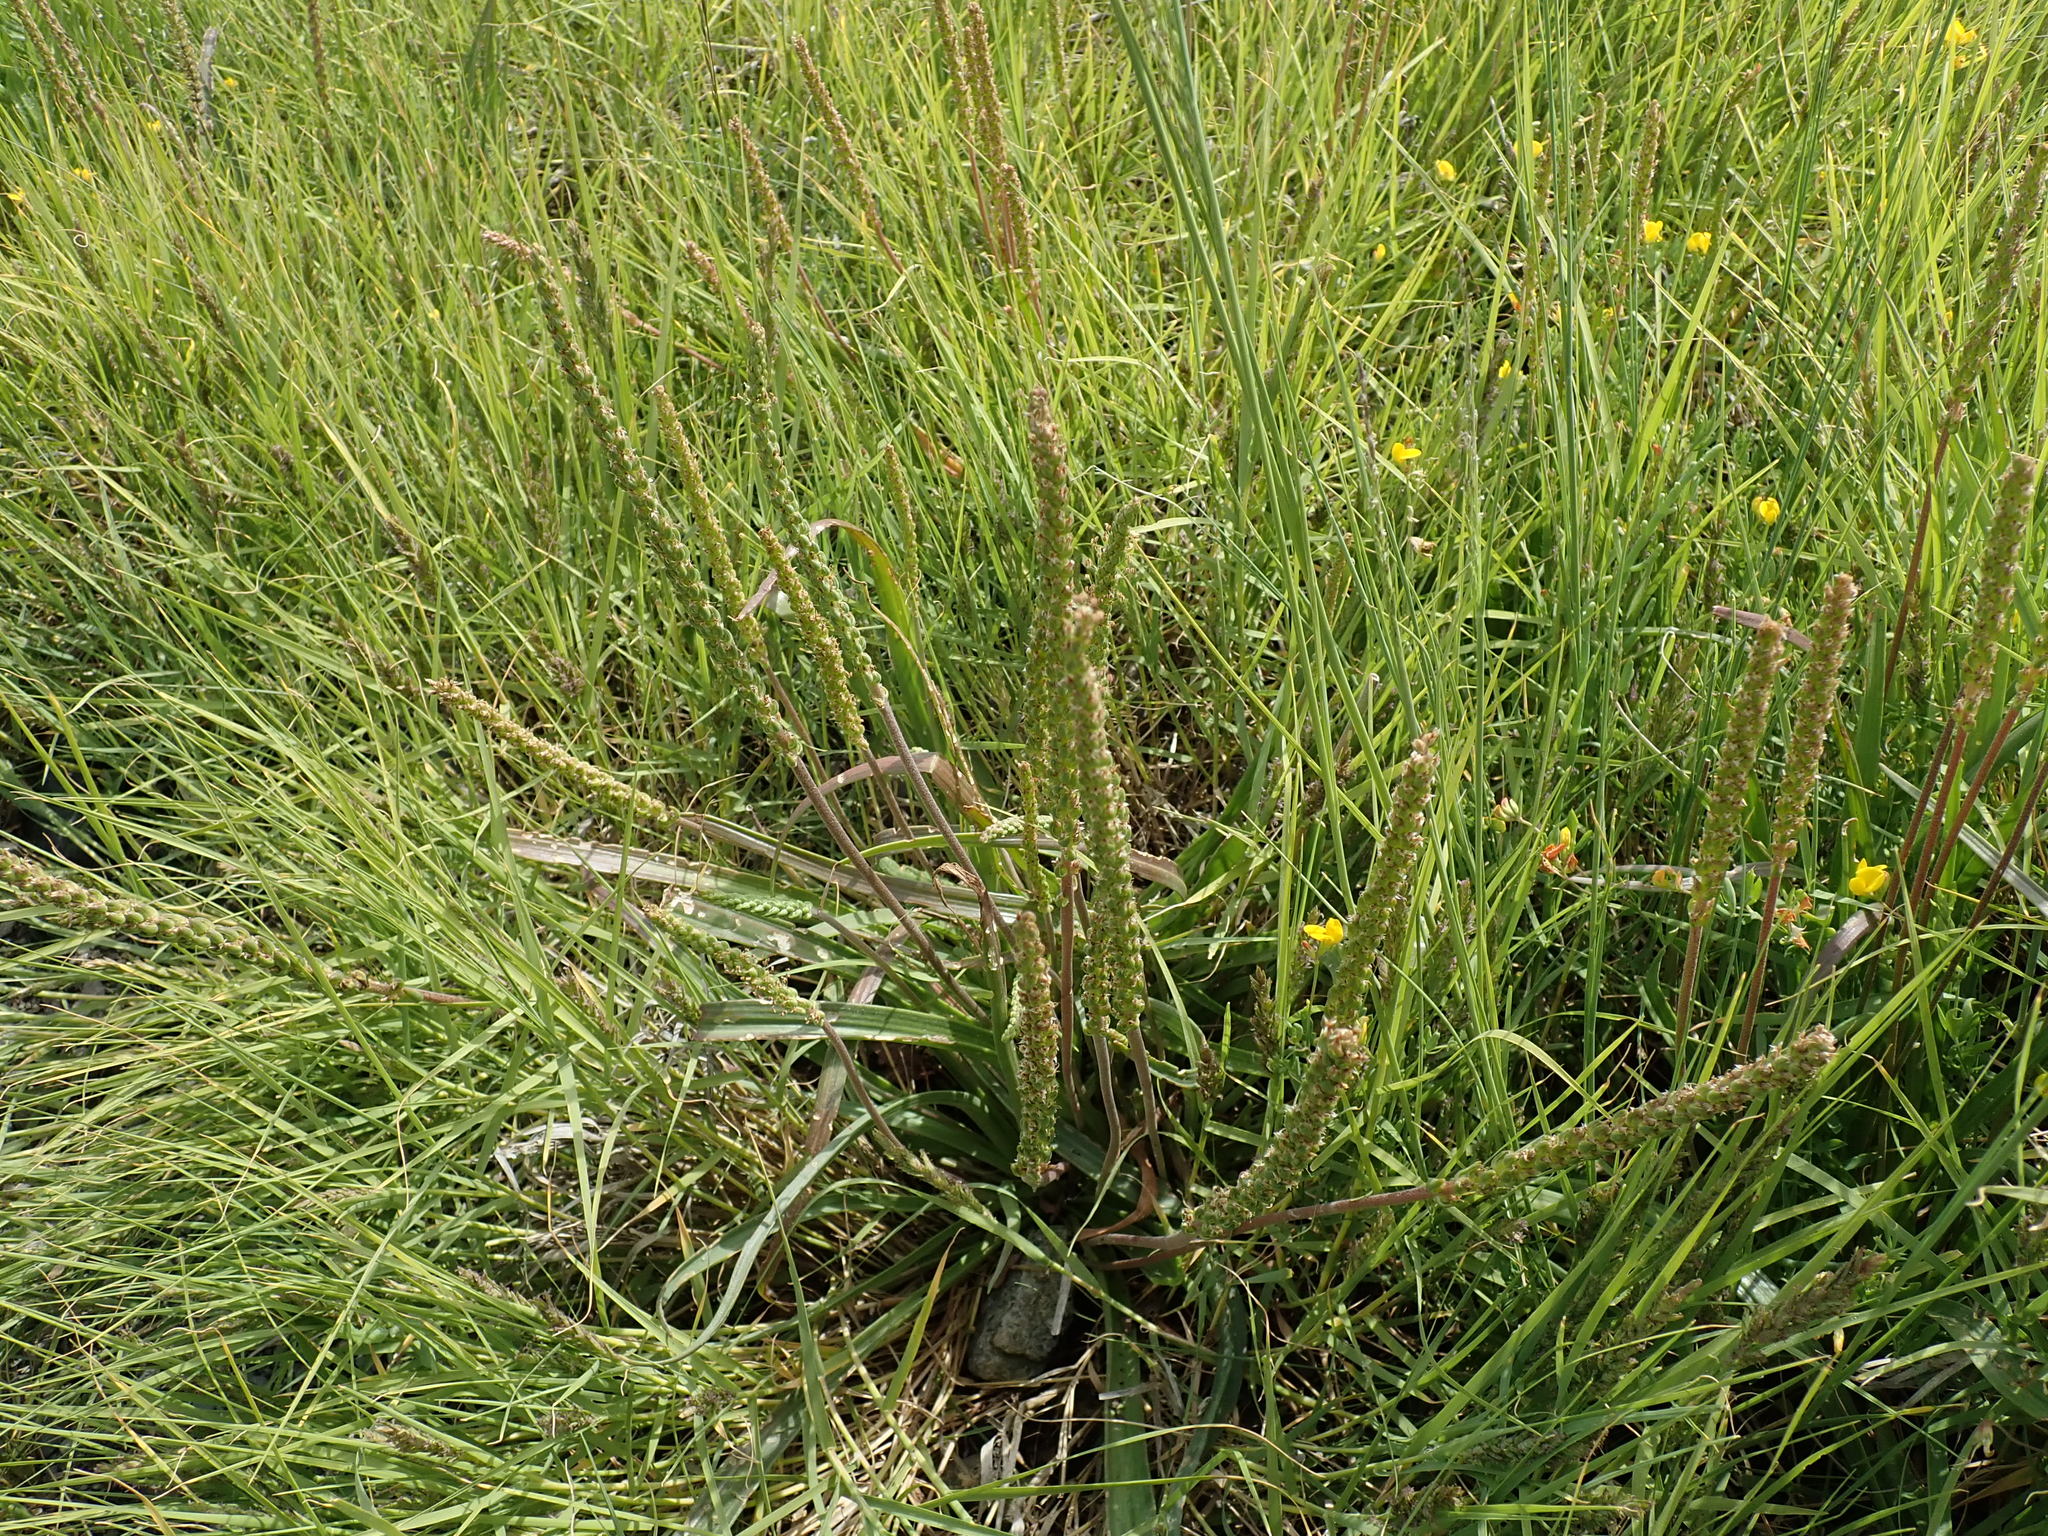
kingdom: Plantae
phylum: Tracheophyta
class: Magnoliopsida
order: Lamiales
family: Plantaginaceae
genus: Plantago
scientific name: Plantago maritima
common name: Sea plantain
